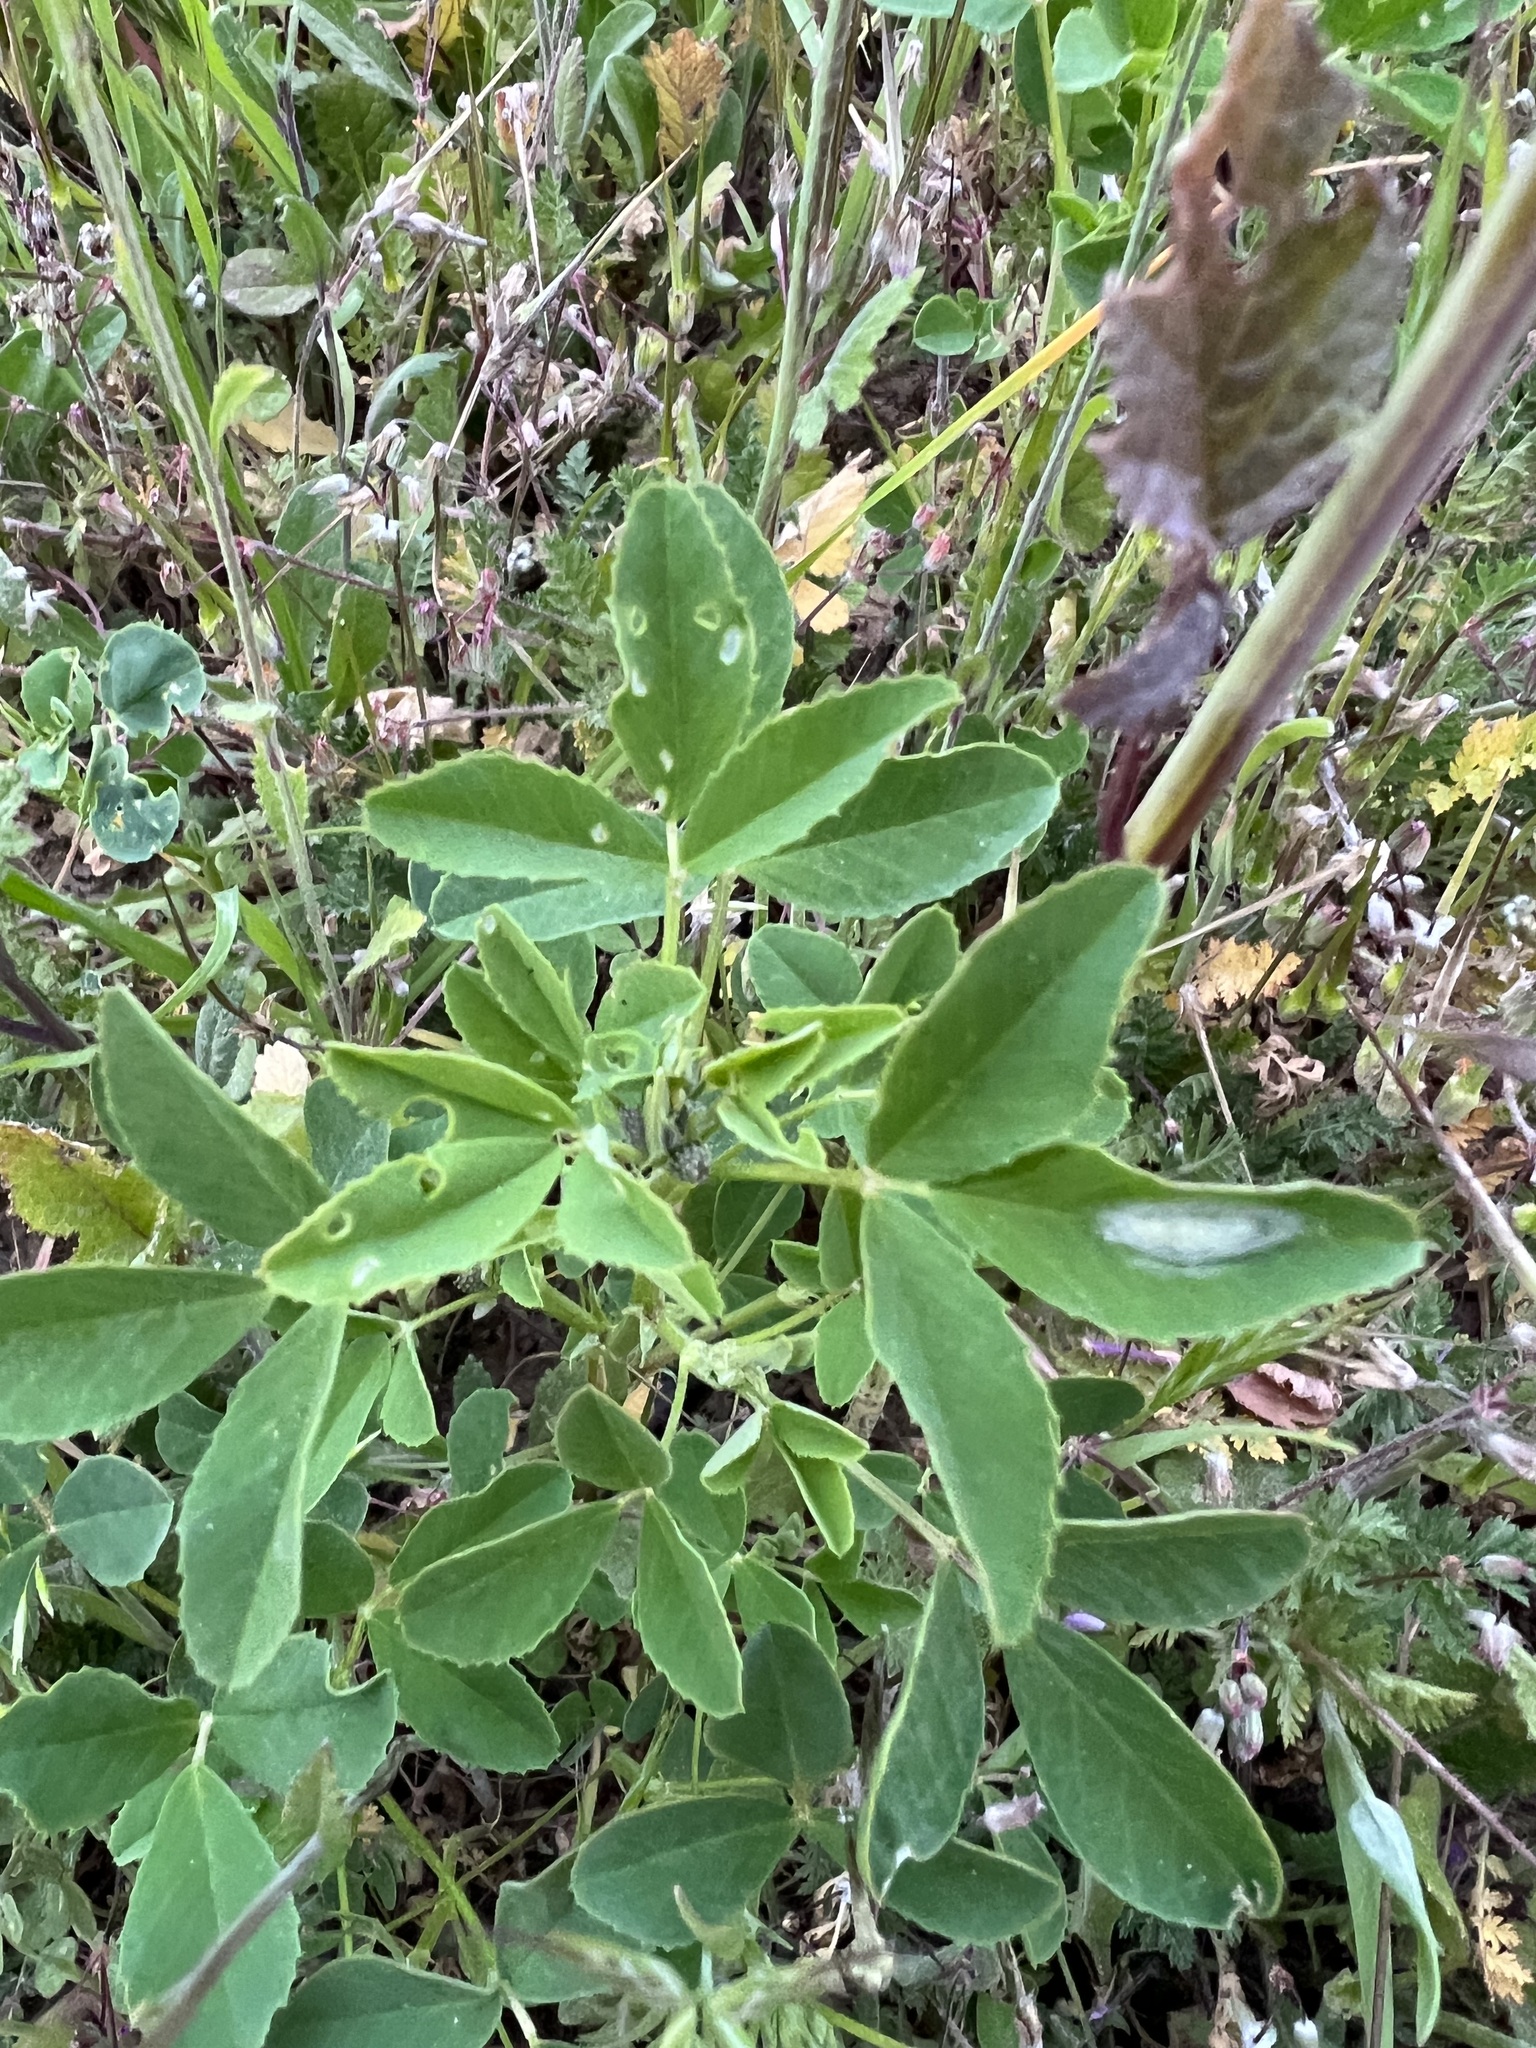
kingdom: Plantae
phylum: Tracheophyta
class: Magnoliopsida
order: Fabales
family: Fabaceae
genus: Melilotus
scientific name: Melilotus indicus
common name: Small melilot
